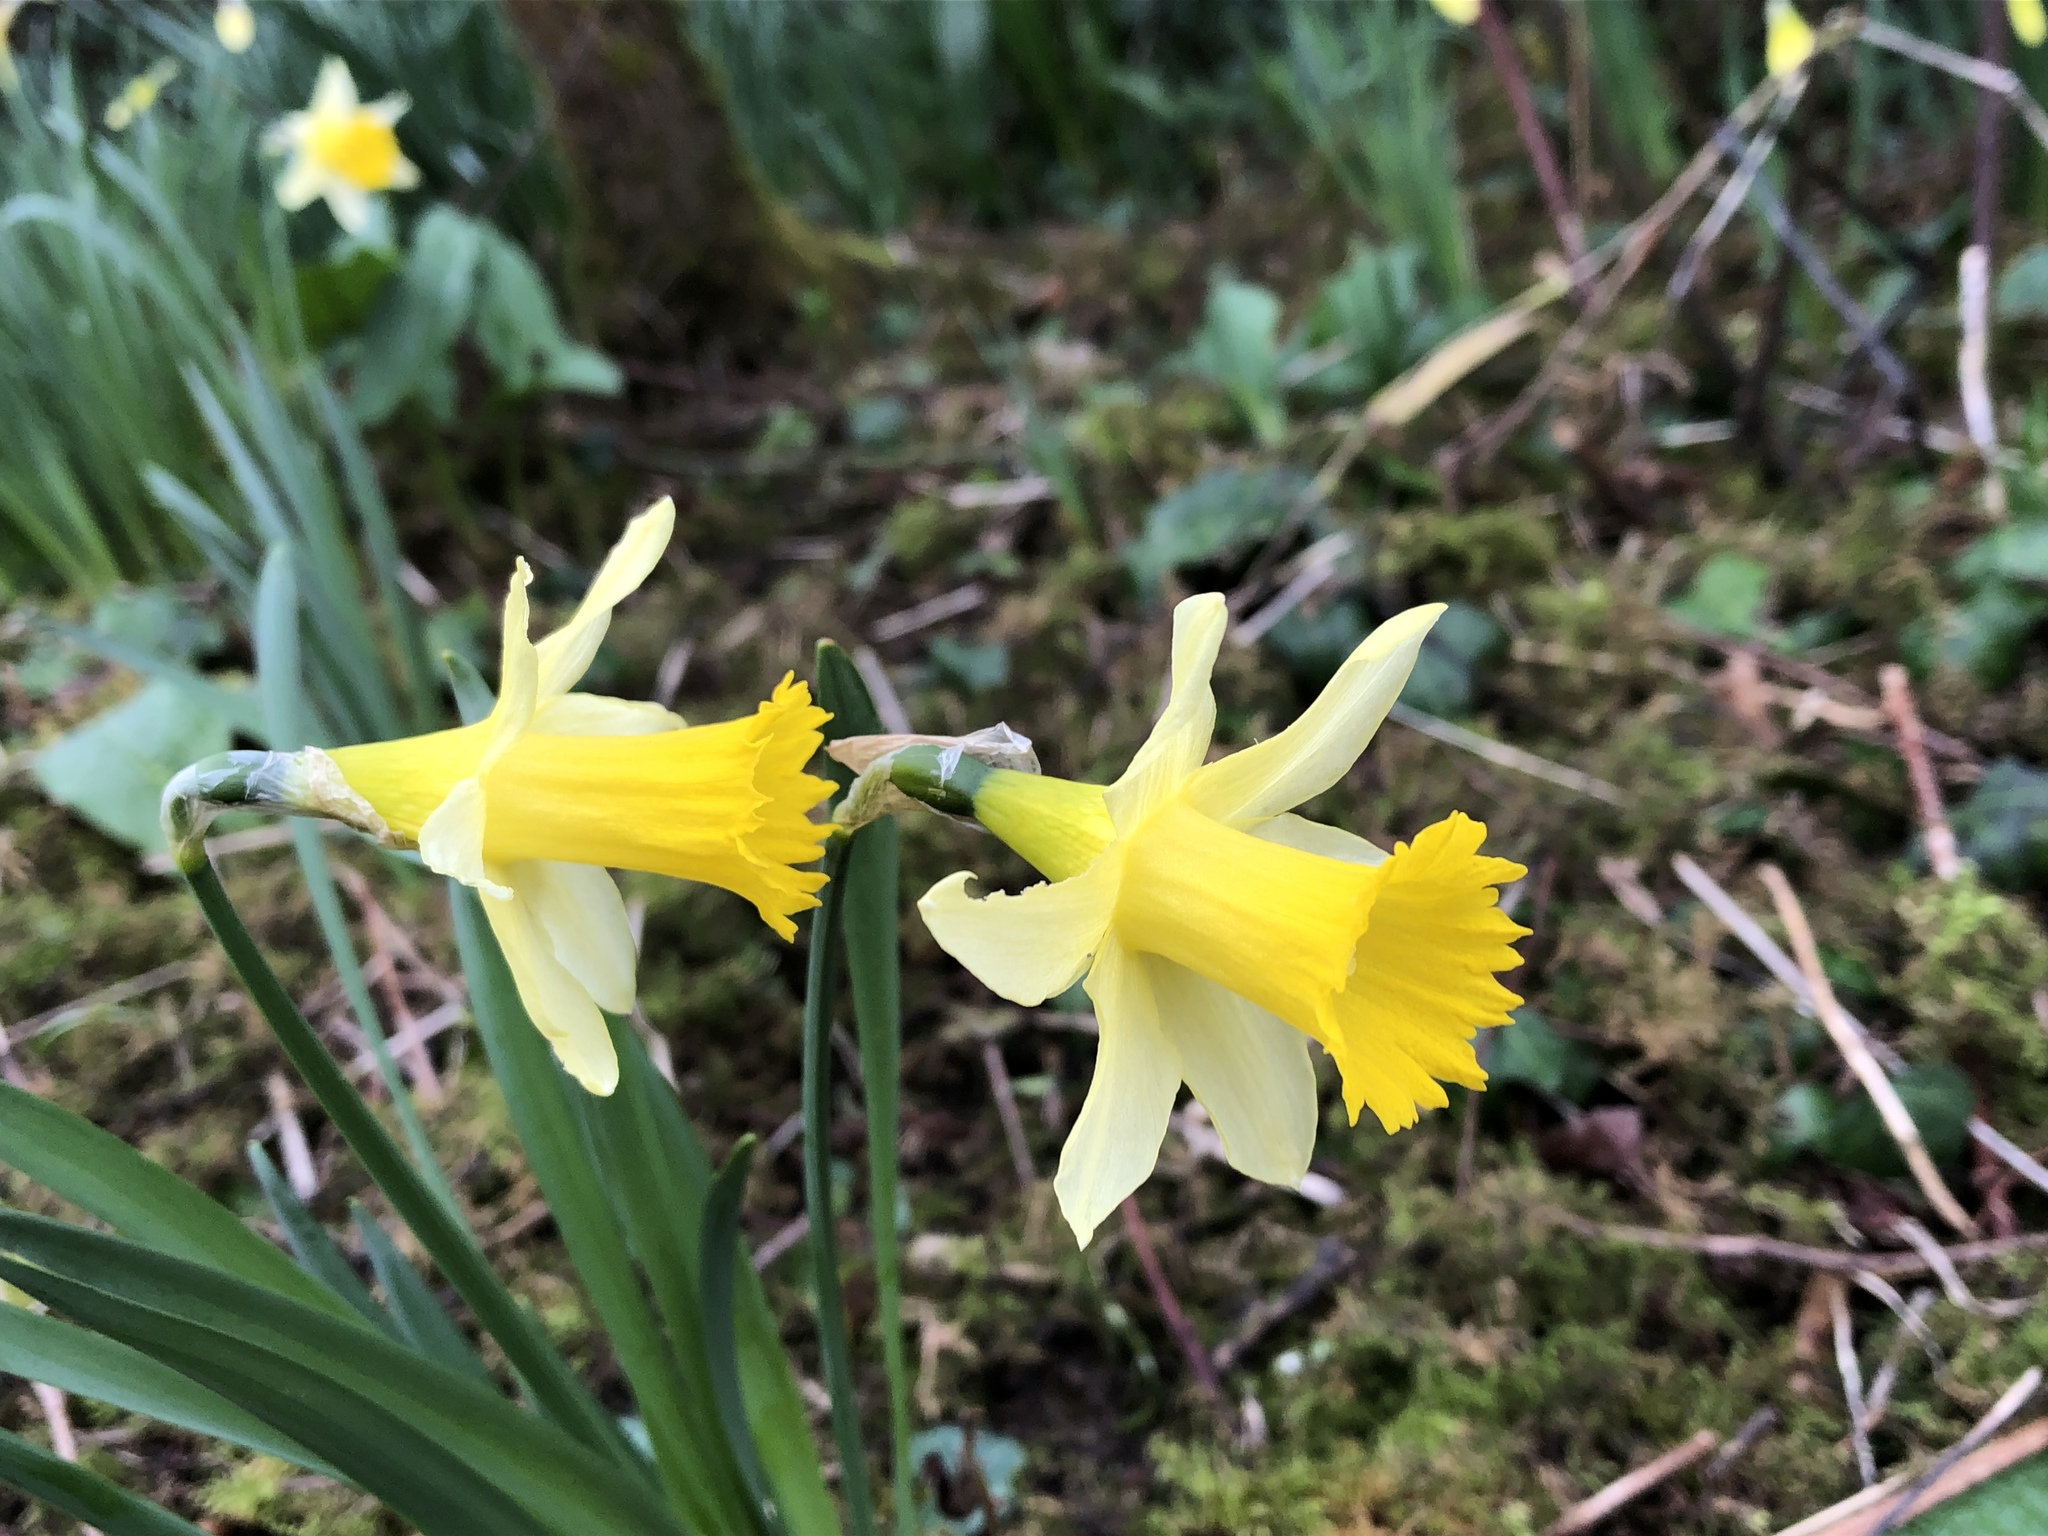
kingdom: Plantae
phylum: Tracheophyta
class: Liliopsida
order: Asparagales
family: Amaryllidaceae
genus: Narcissus
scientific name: Narcissus pseudonarcissus
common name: Daffodil
